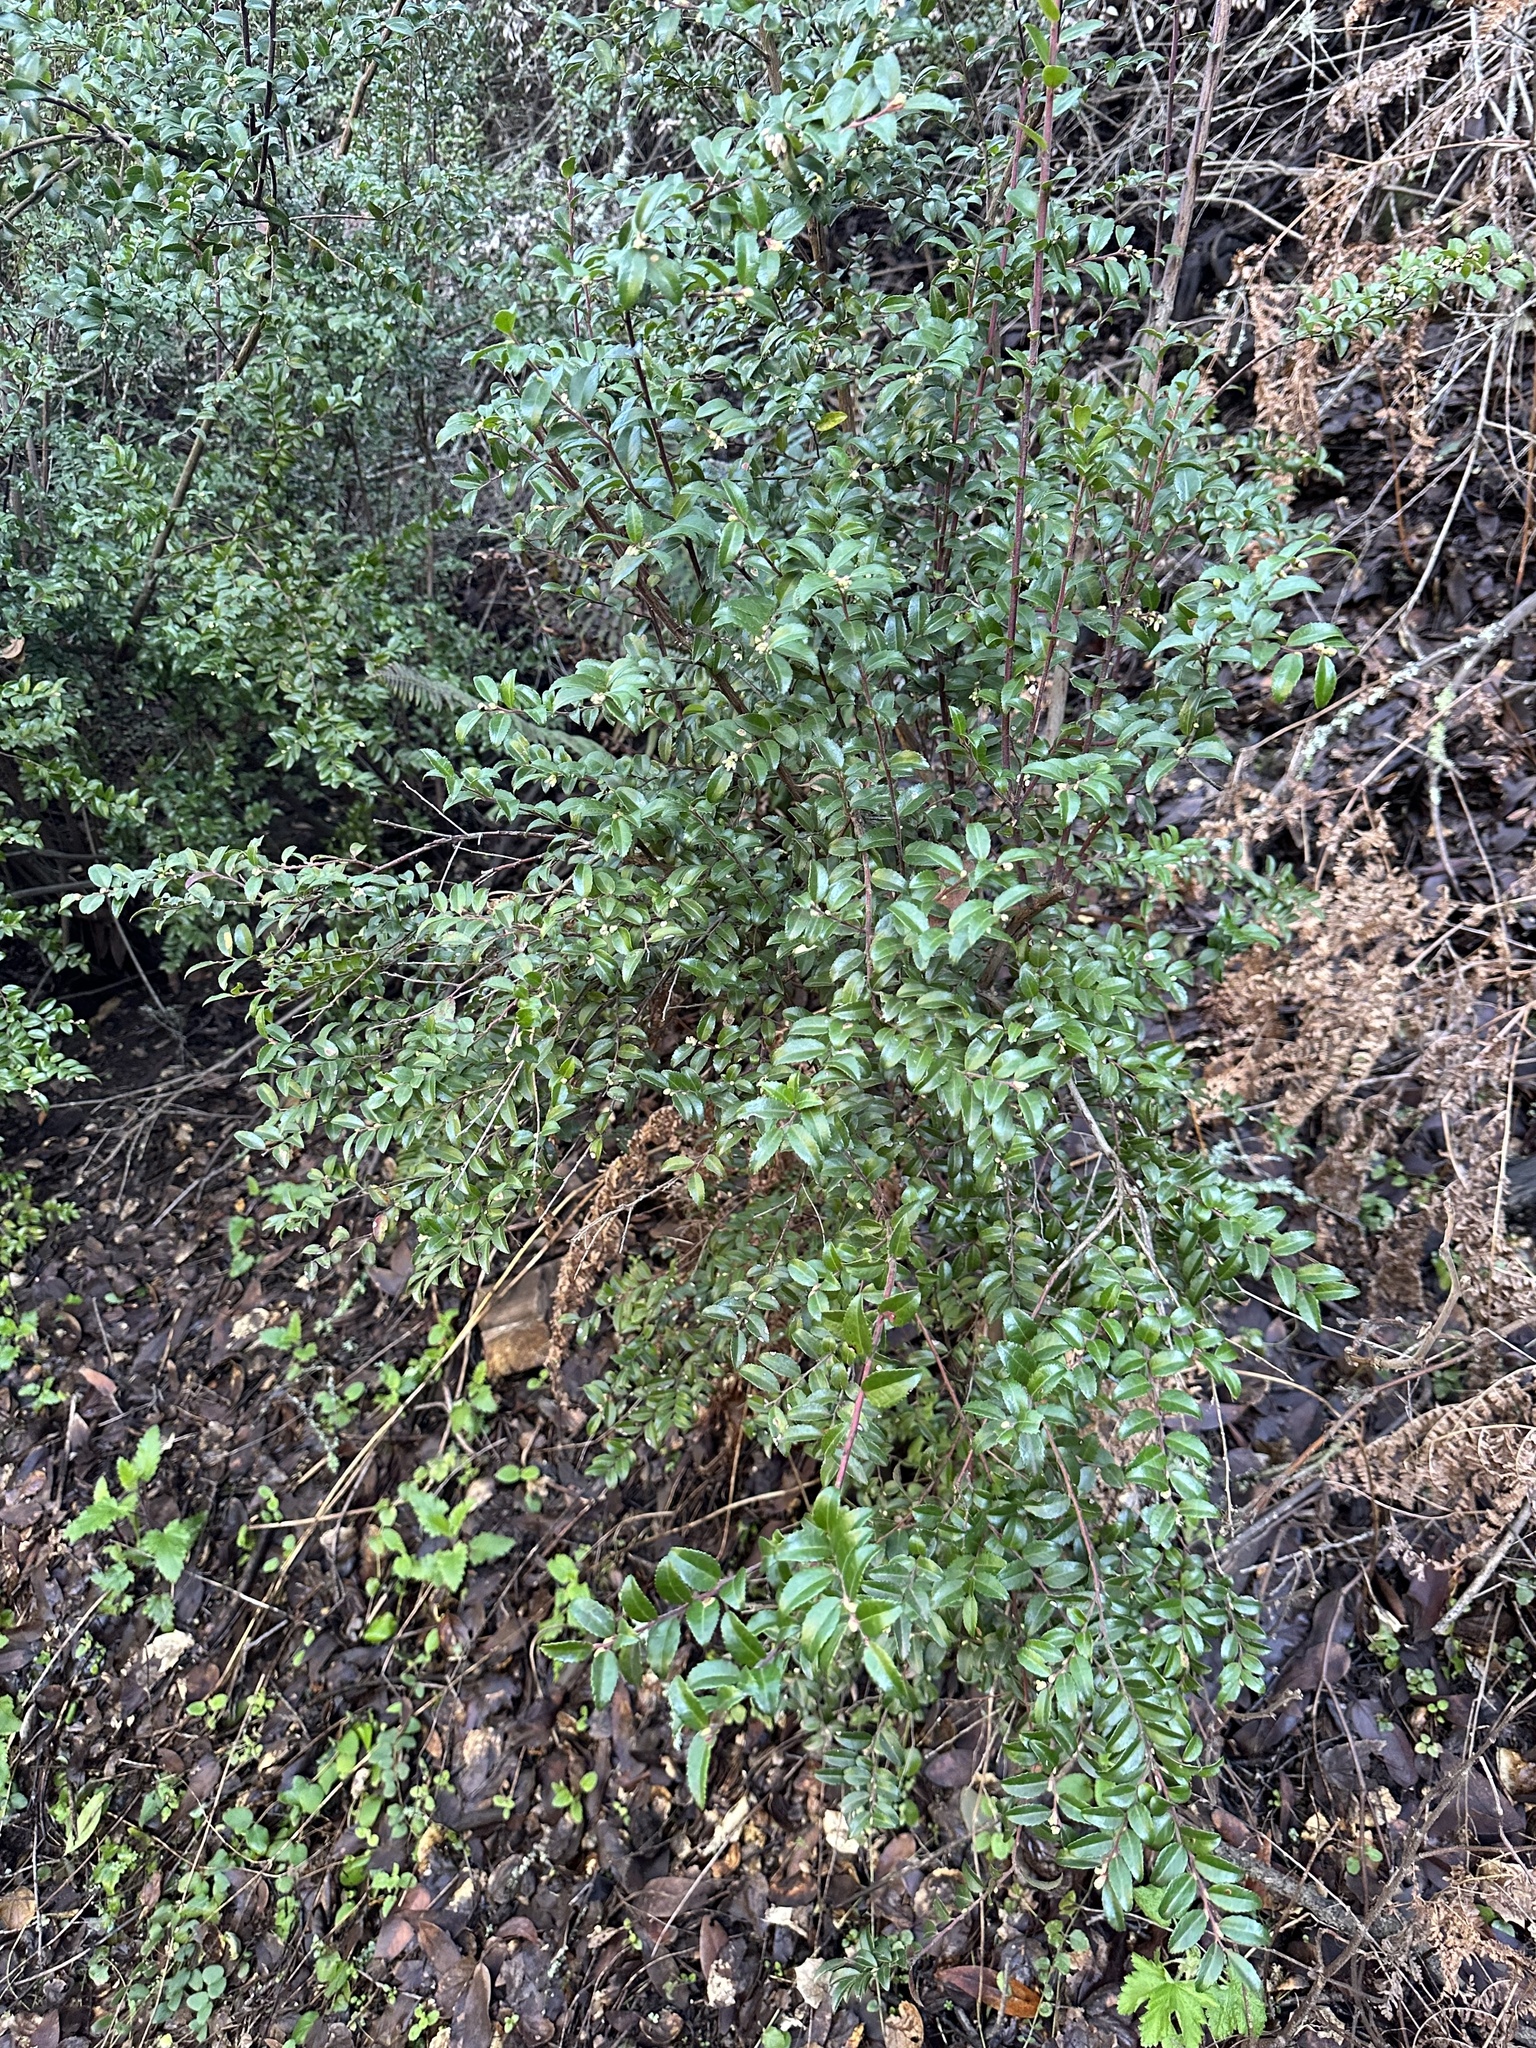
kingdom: Plantae
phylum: Tracheophyta
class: Magnoliopsida
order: Ericales
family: Ericaceae
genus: Vaccinium
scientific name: Vaccinium ovatum
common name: California-huckleberry
